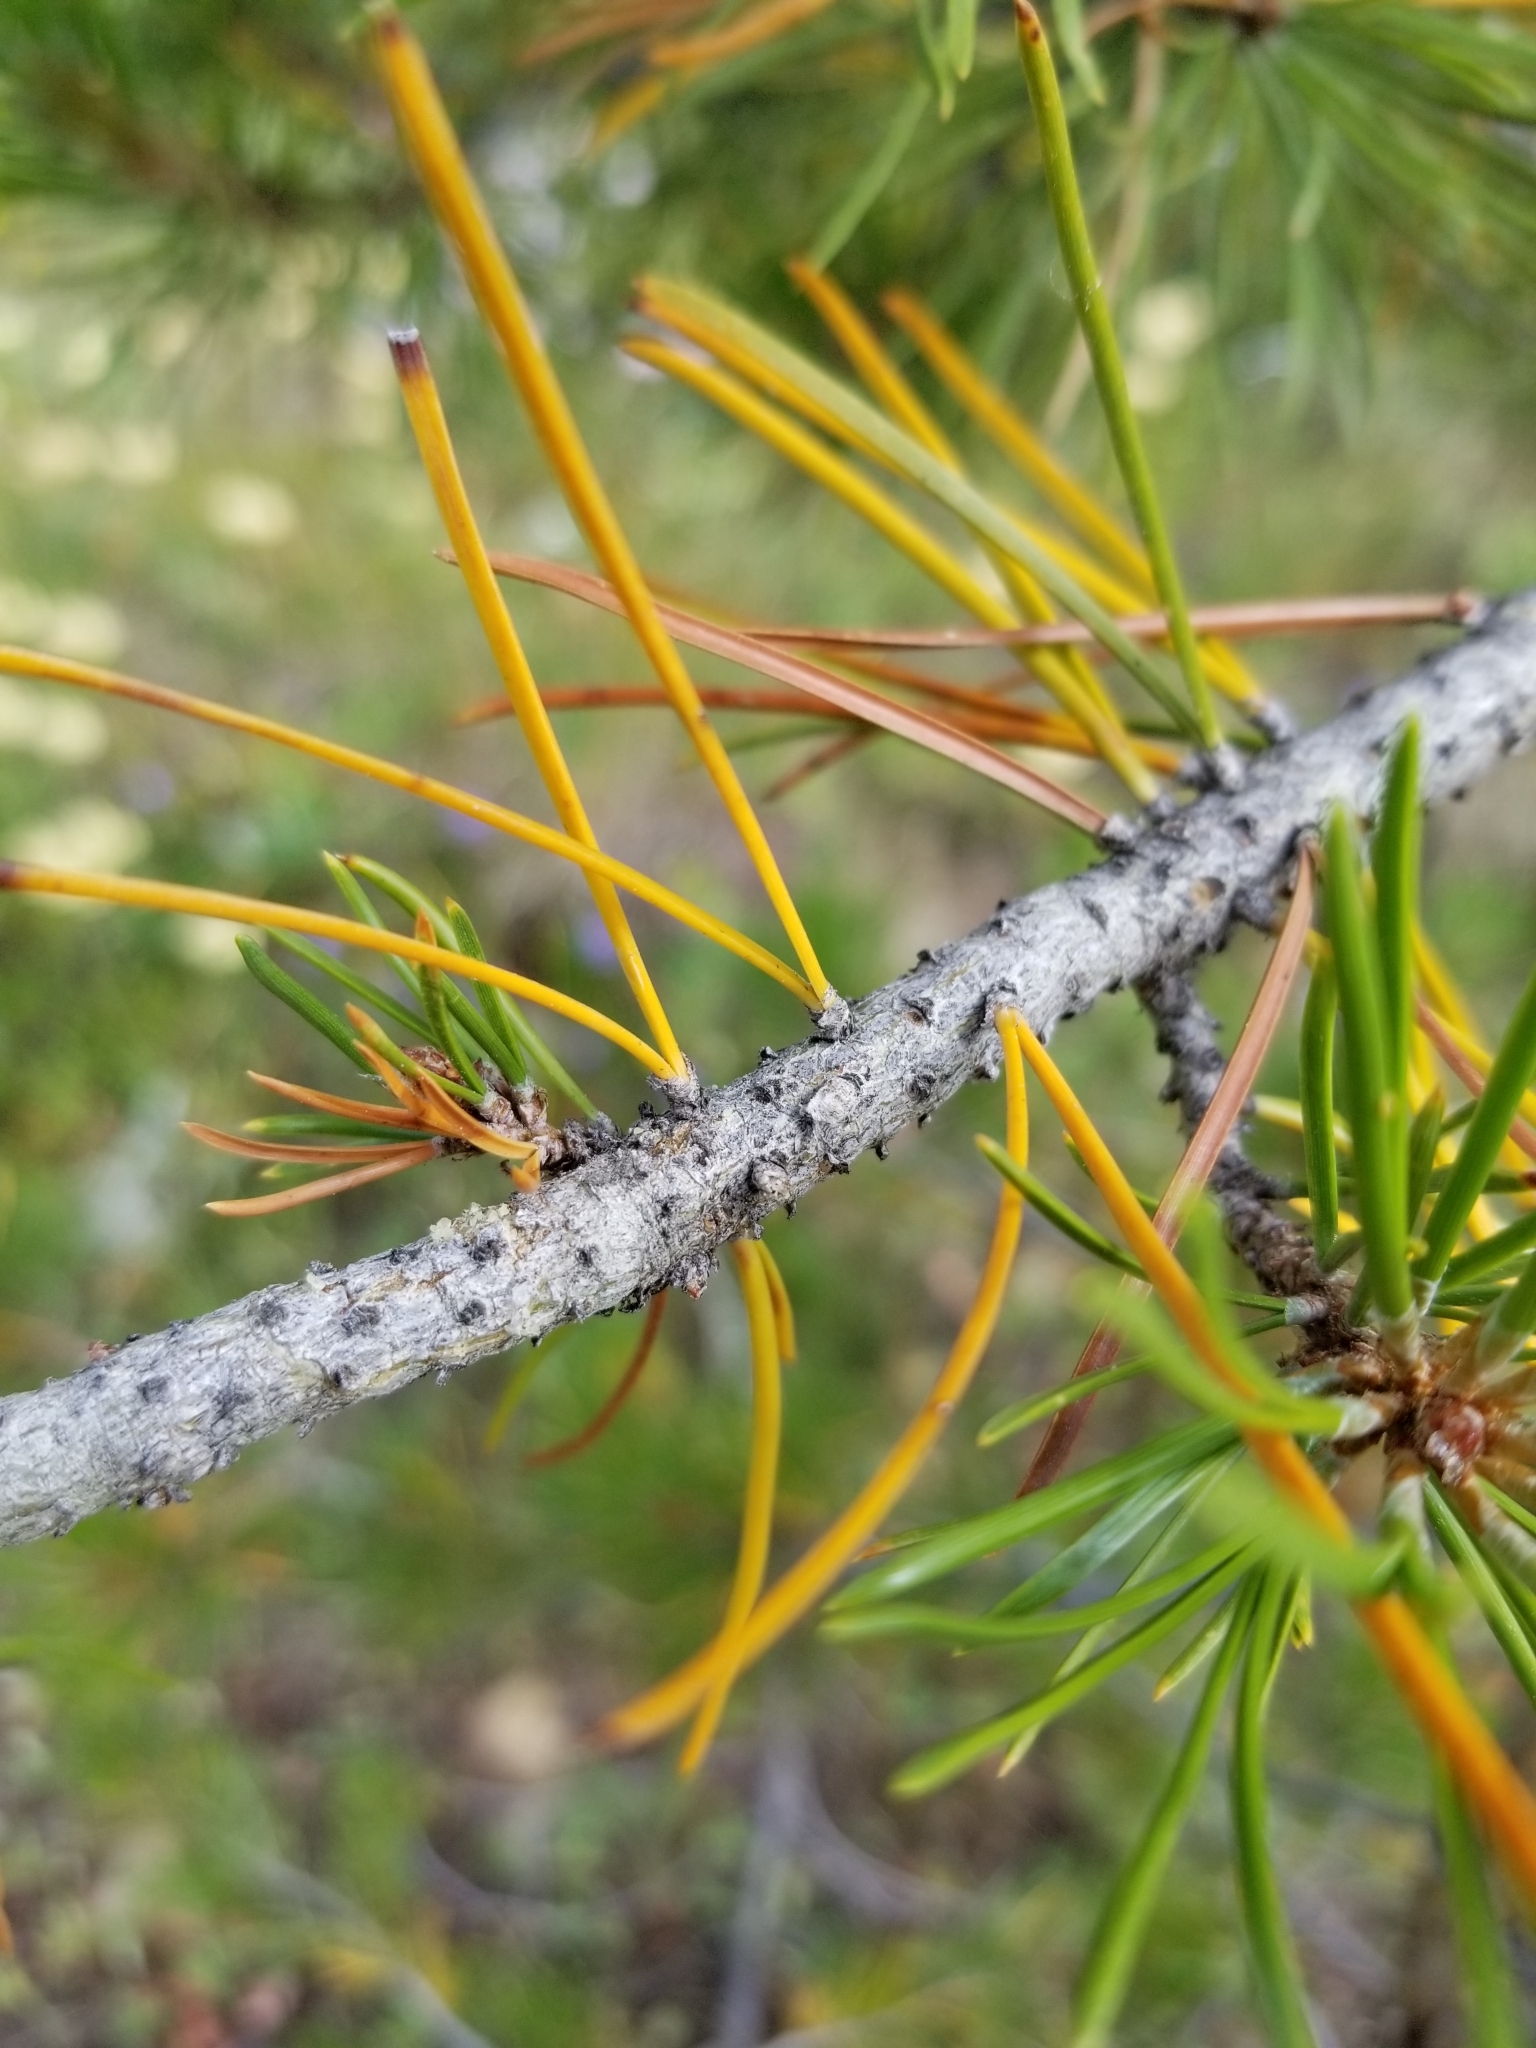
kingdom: Plantae
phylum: Tracheophyta
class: Pinopsida
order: Pinales
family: Pinaceae
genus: Pinus
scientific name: Pinus contorta
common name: Lodgepole pine
